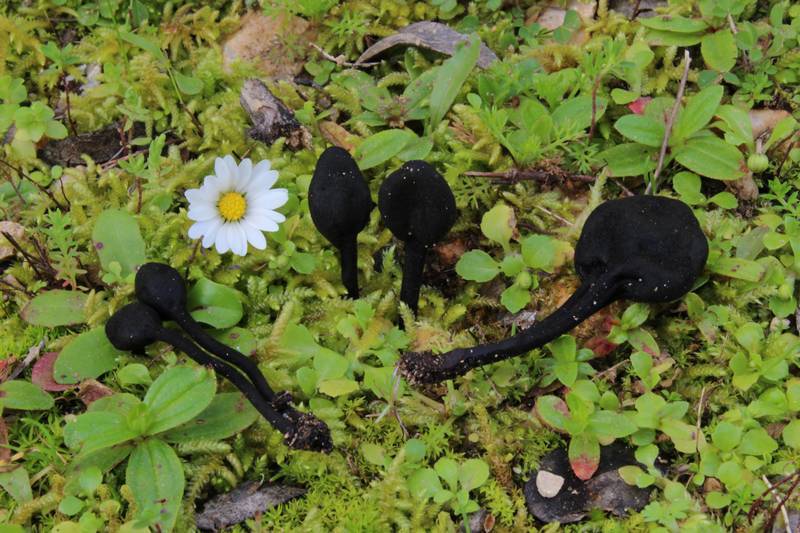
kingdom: Fungi
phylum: Ascomycota
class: Geoglossomycetes
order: Geoglossales
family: Geoglossaceae
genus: Trichoglossum
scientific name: Trichoglossum hirsutum
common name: Hairy earthtongue
